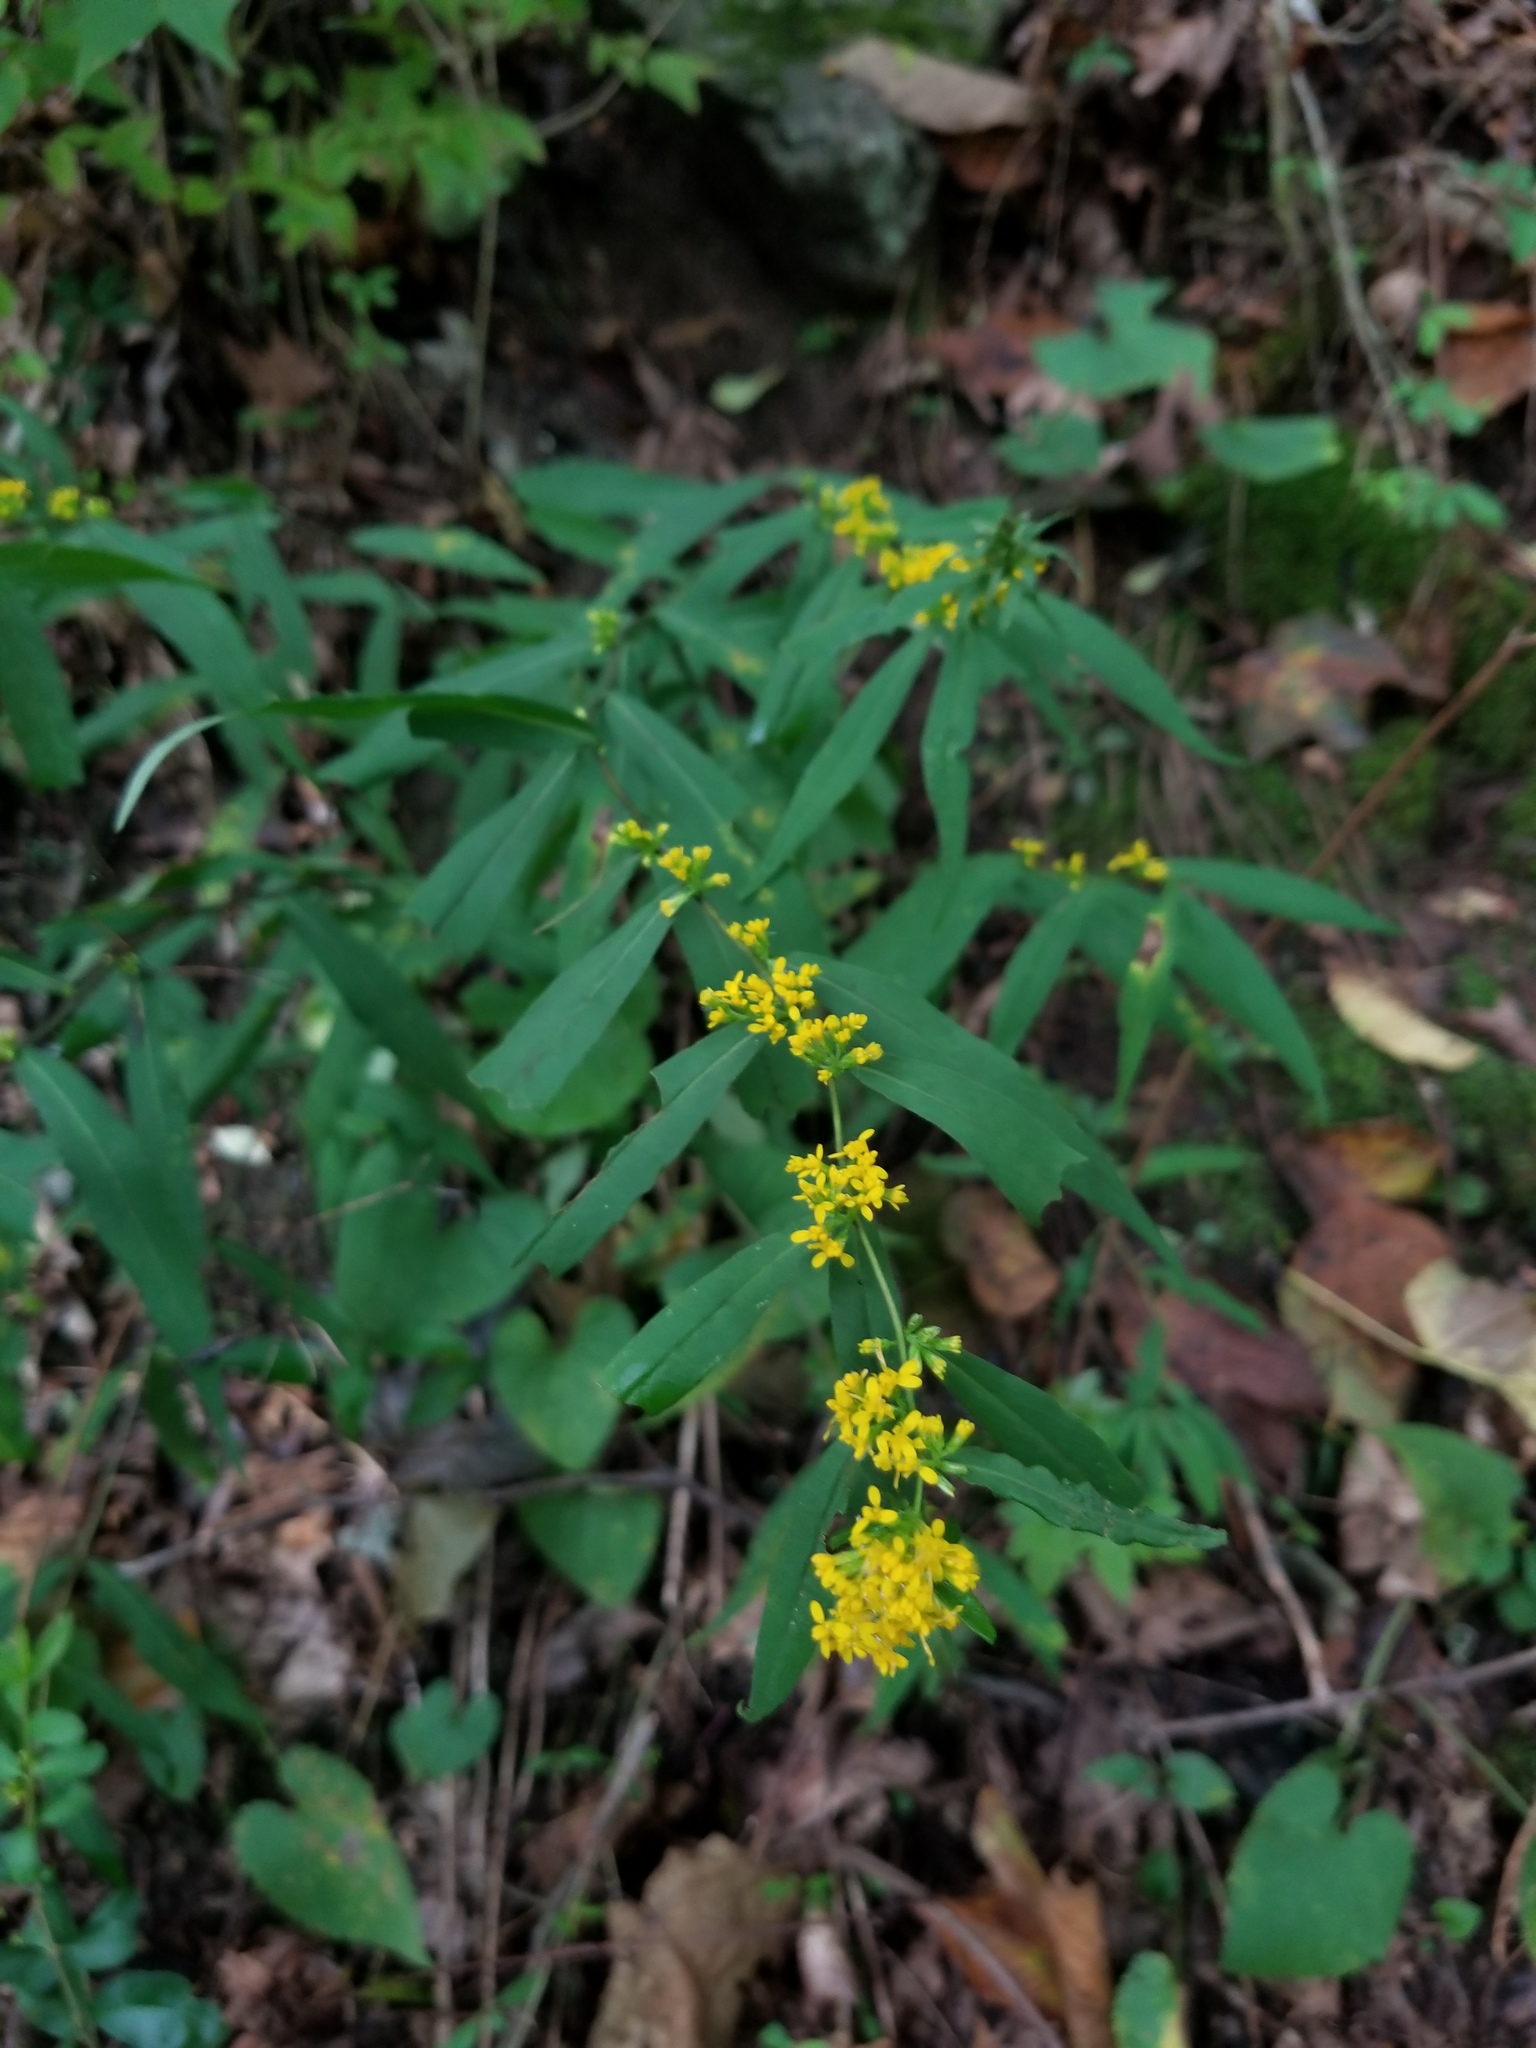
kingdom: Plantae
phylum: Tracheophyta
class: Magnoliopsida
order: Asterales
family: Asteraceae
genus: Solidago
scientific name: Solidago caesia
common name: Woodland goldenrod
